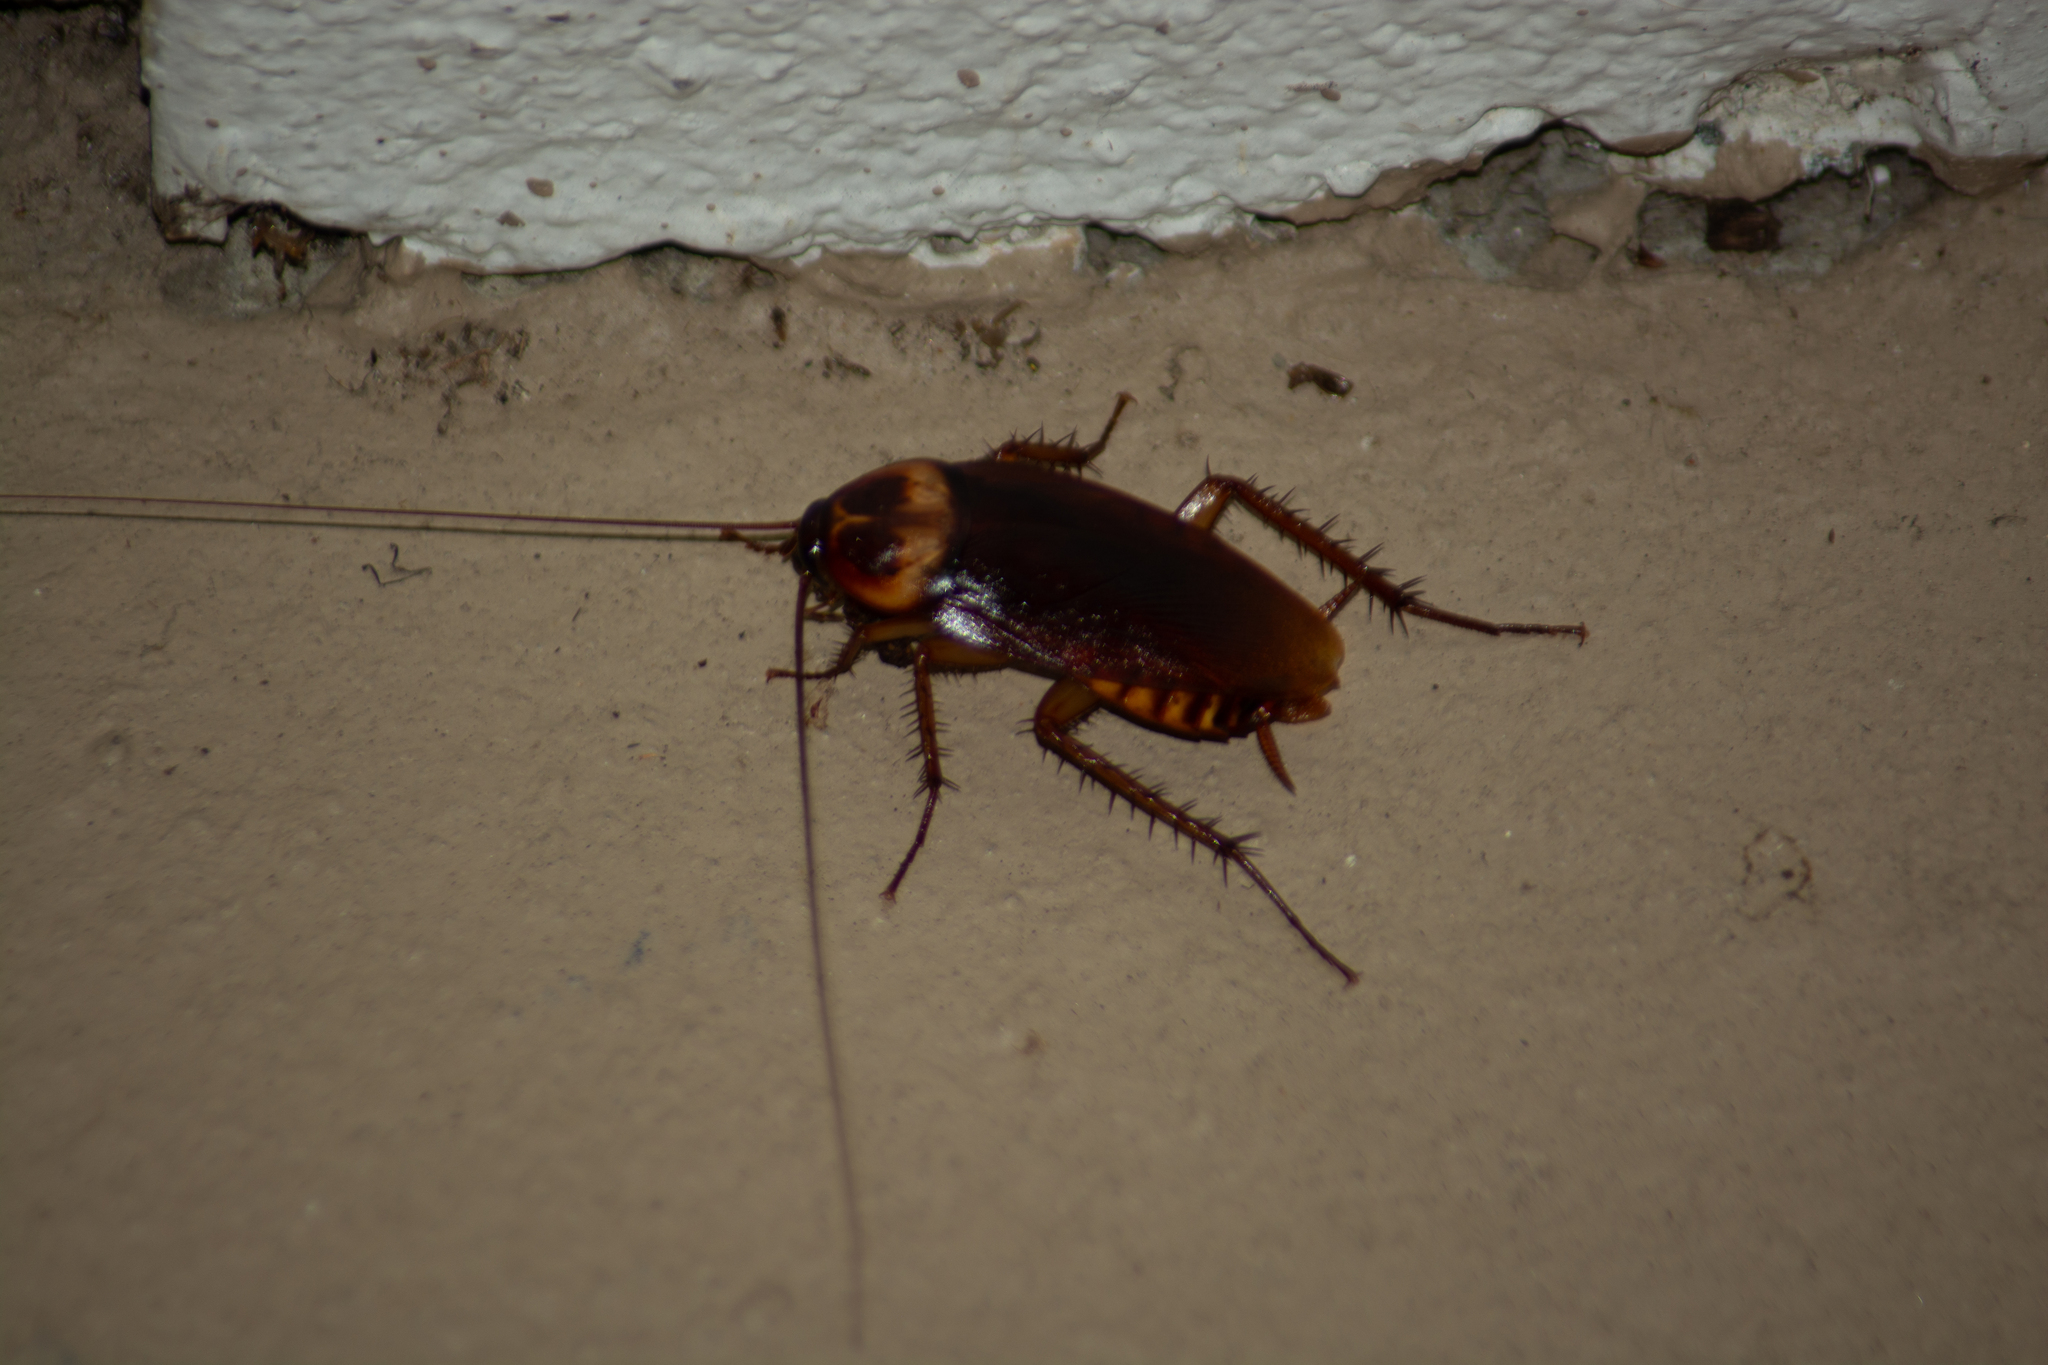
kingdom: Animalia
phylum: Arthropoda
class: Insecta
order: Blattodea
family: Blattidae
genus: Periplaneta
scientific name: Periplaneta americana
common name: American cockroach
